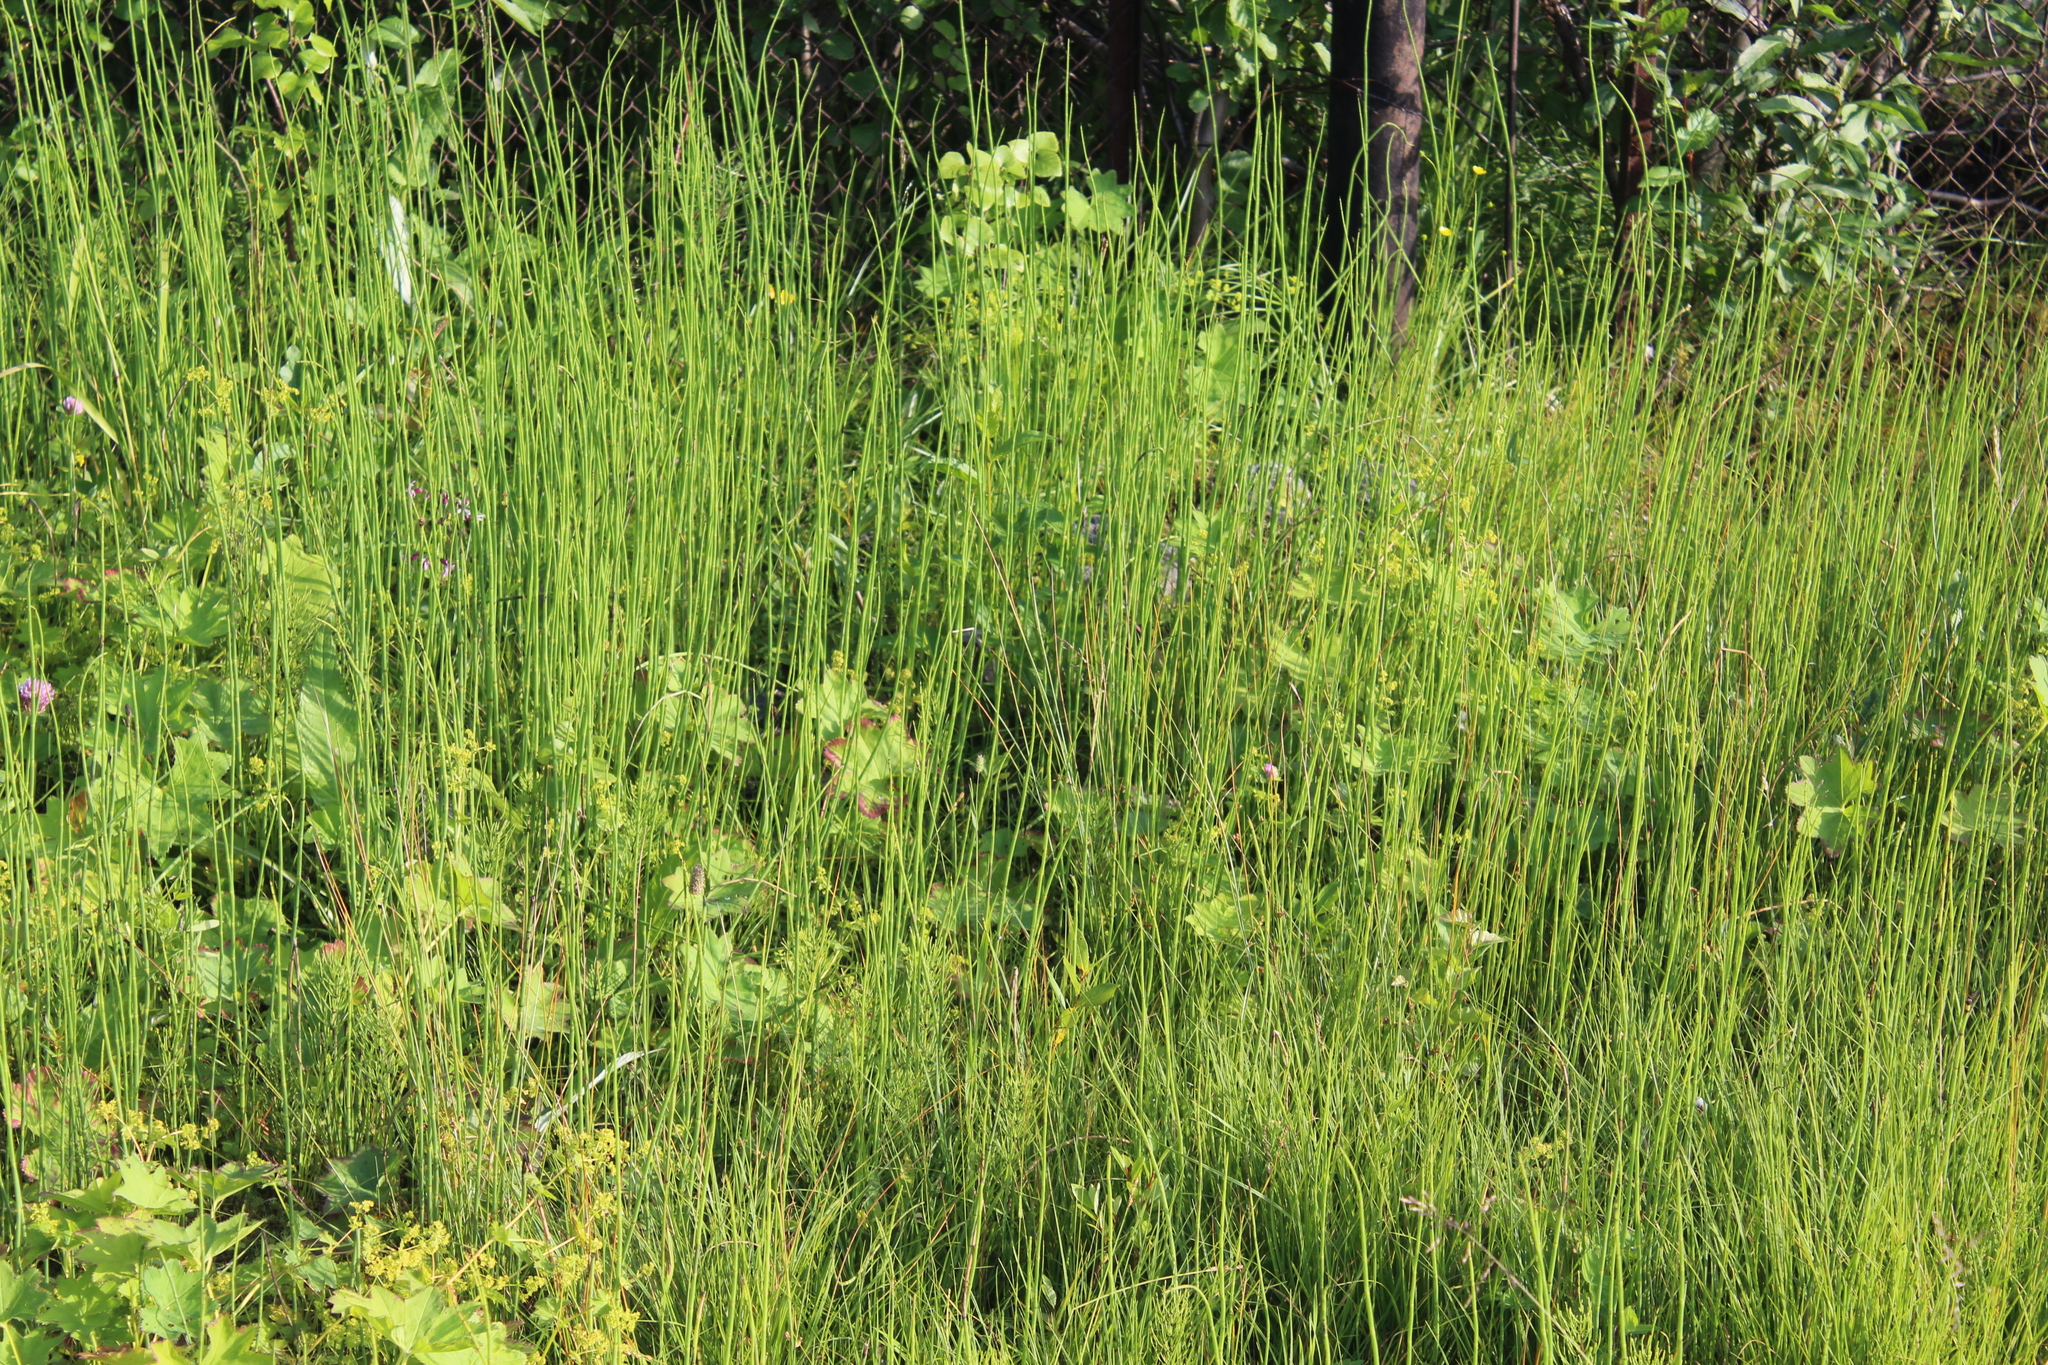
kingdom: Plantae
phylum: Tracheophyta
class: Polypodiopsida
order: Equisetales
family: Equisetaceae
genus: Equisetum
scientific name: Equisetum fluviatile
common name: Water horsetail
